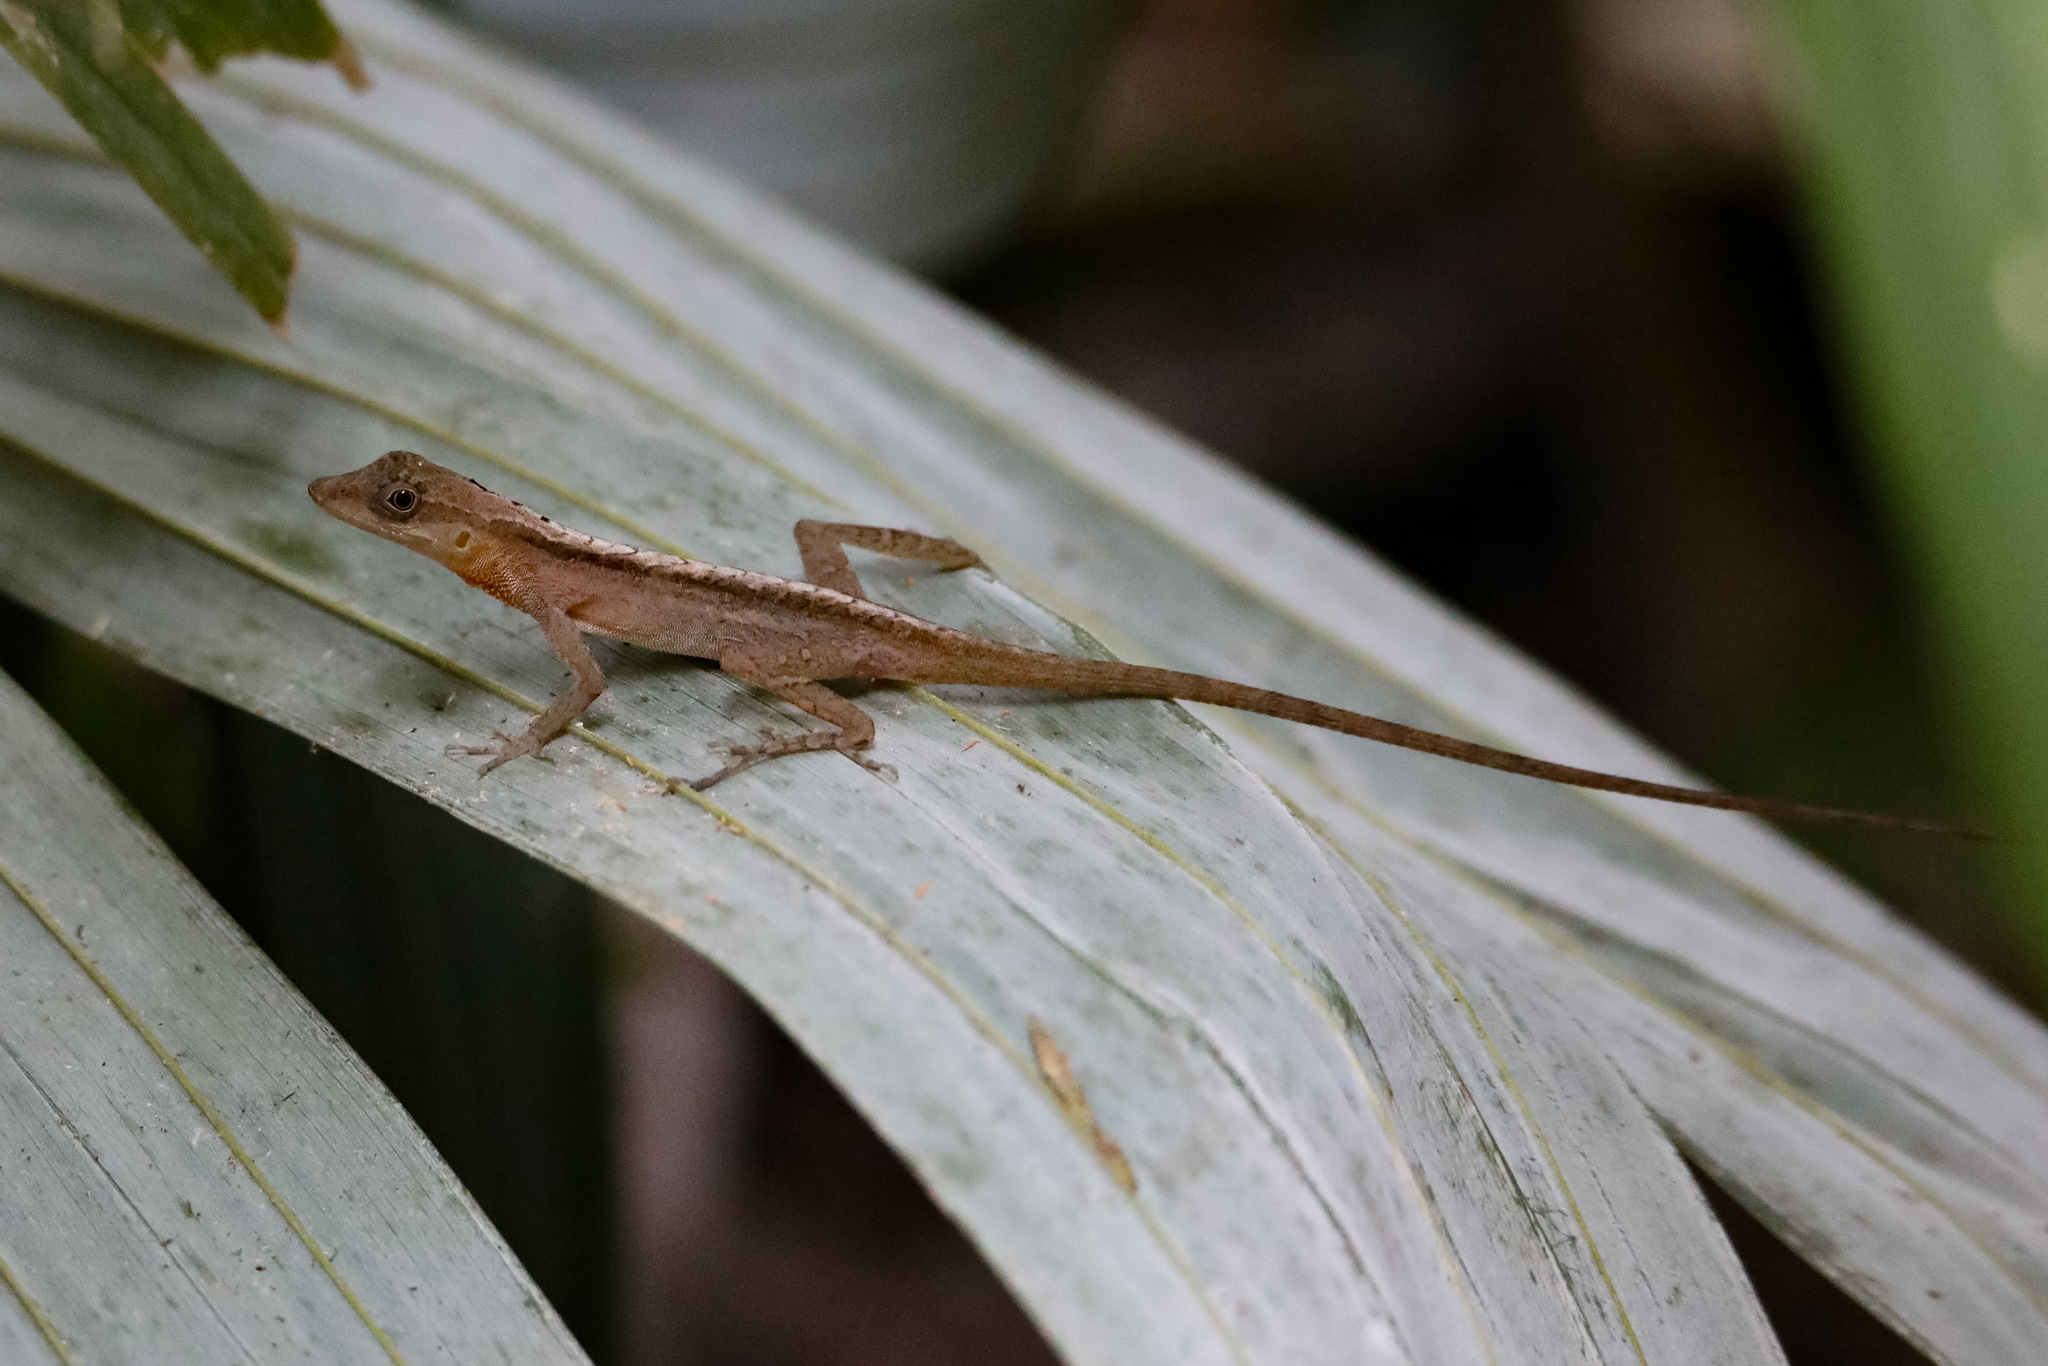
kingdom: Animalia
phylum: Chordata
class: Squamata
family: Dactyloidae
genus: Anolis
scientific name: Anolis gaigei
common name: Gaige’s anole
